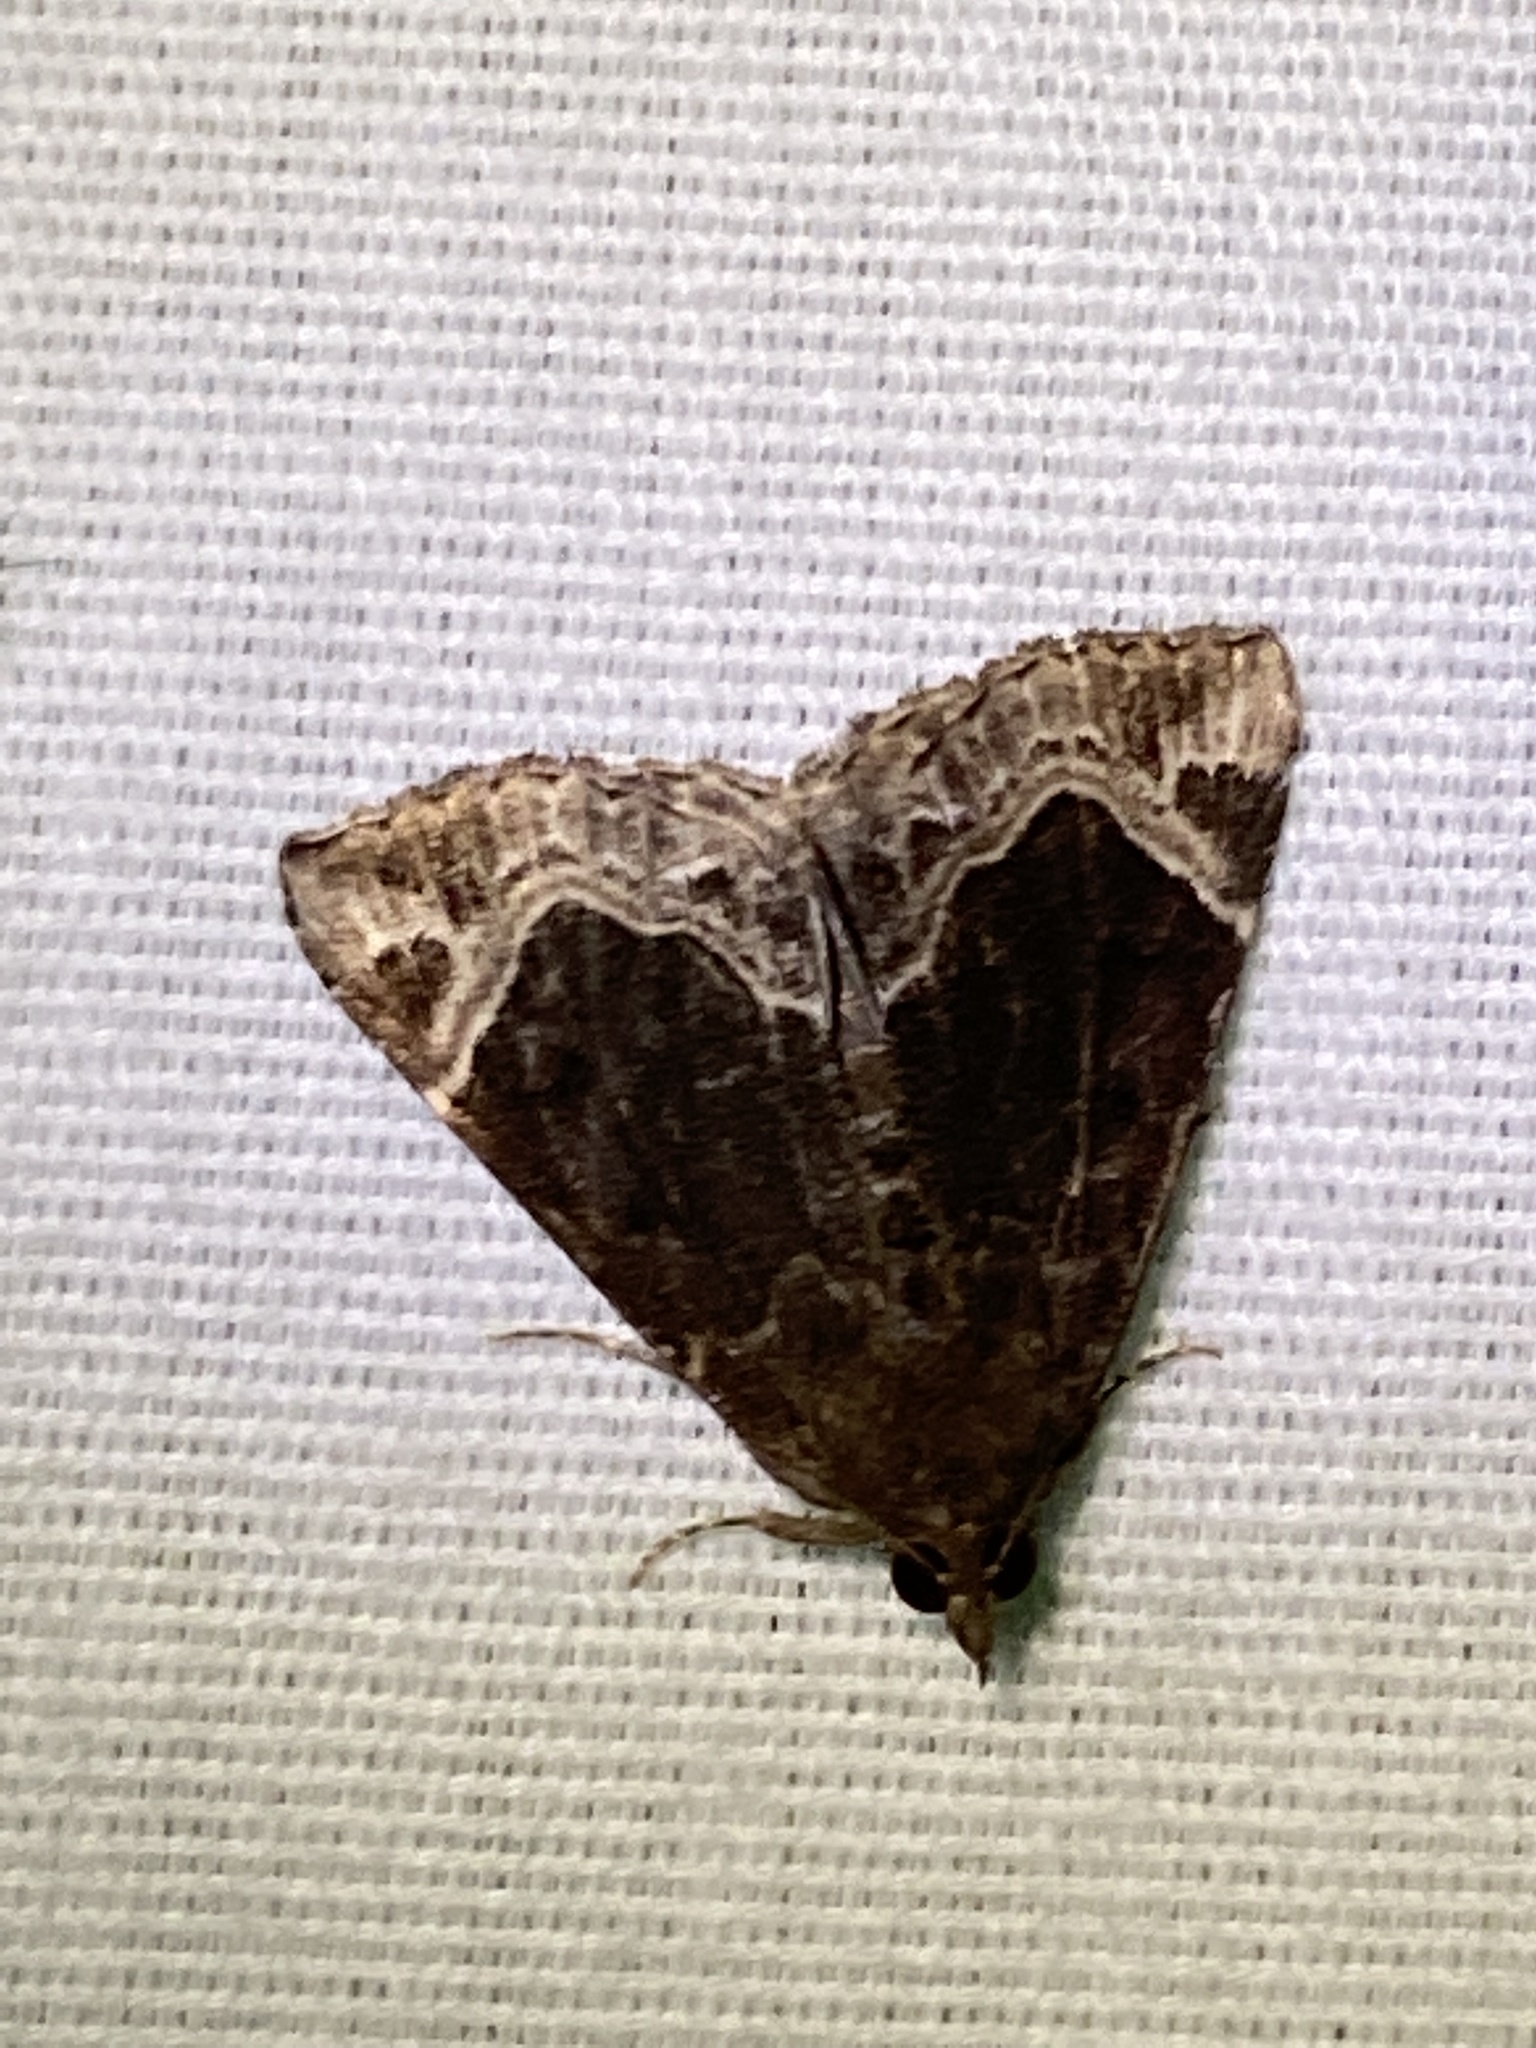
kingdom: Animalia
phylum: Arthropoda
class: Insecta
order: Lepidoptera
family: Erebidae
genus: Hypena
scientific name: Hypena abalienalis
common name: White-lined snout
